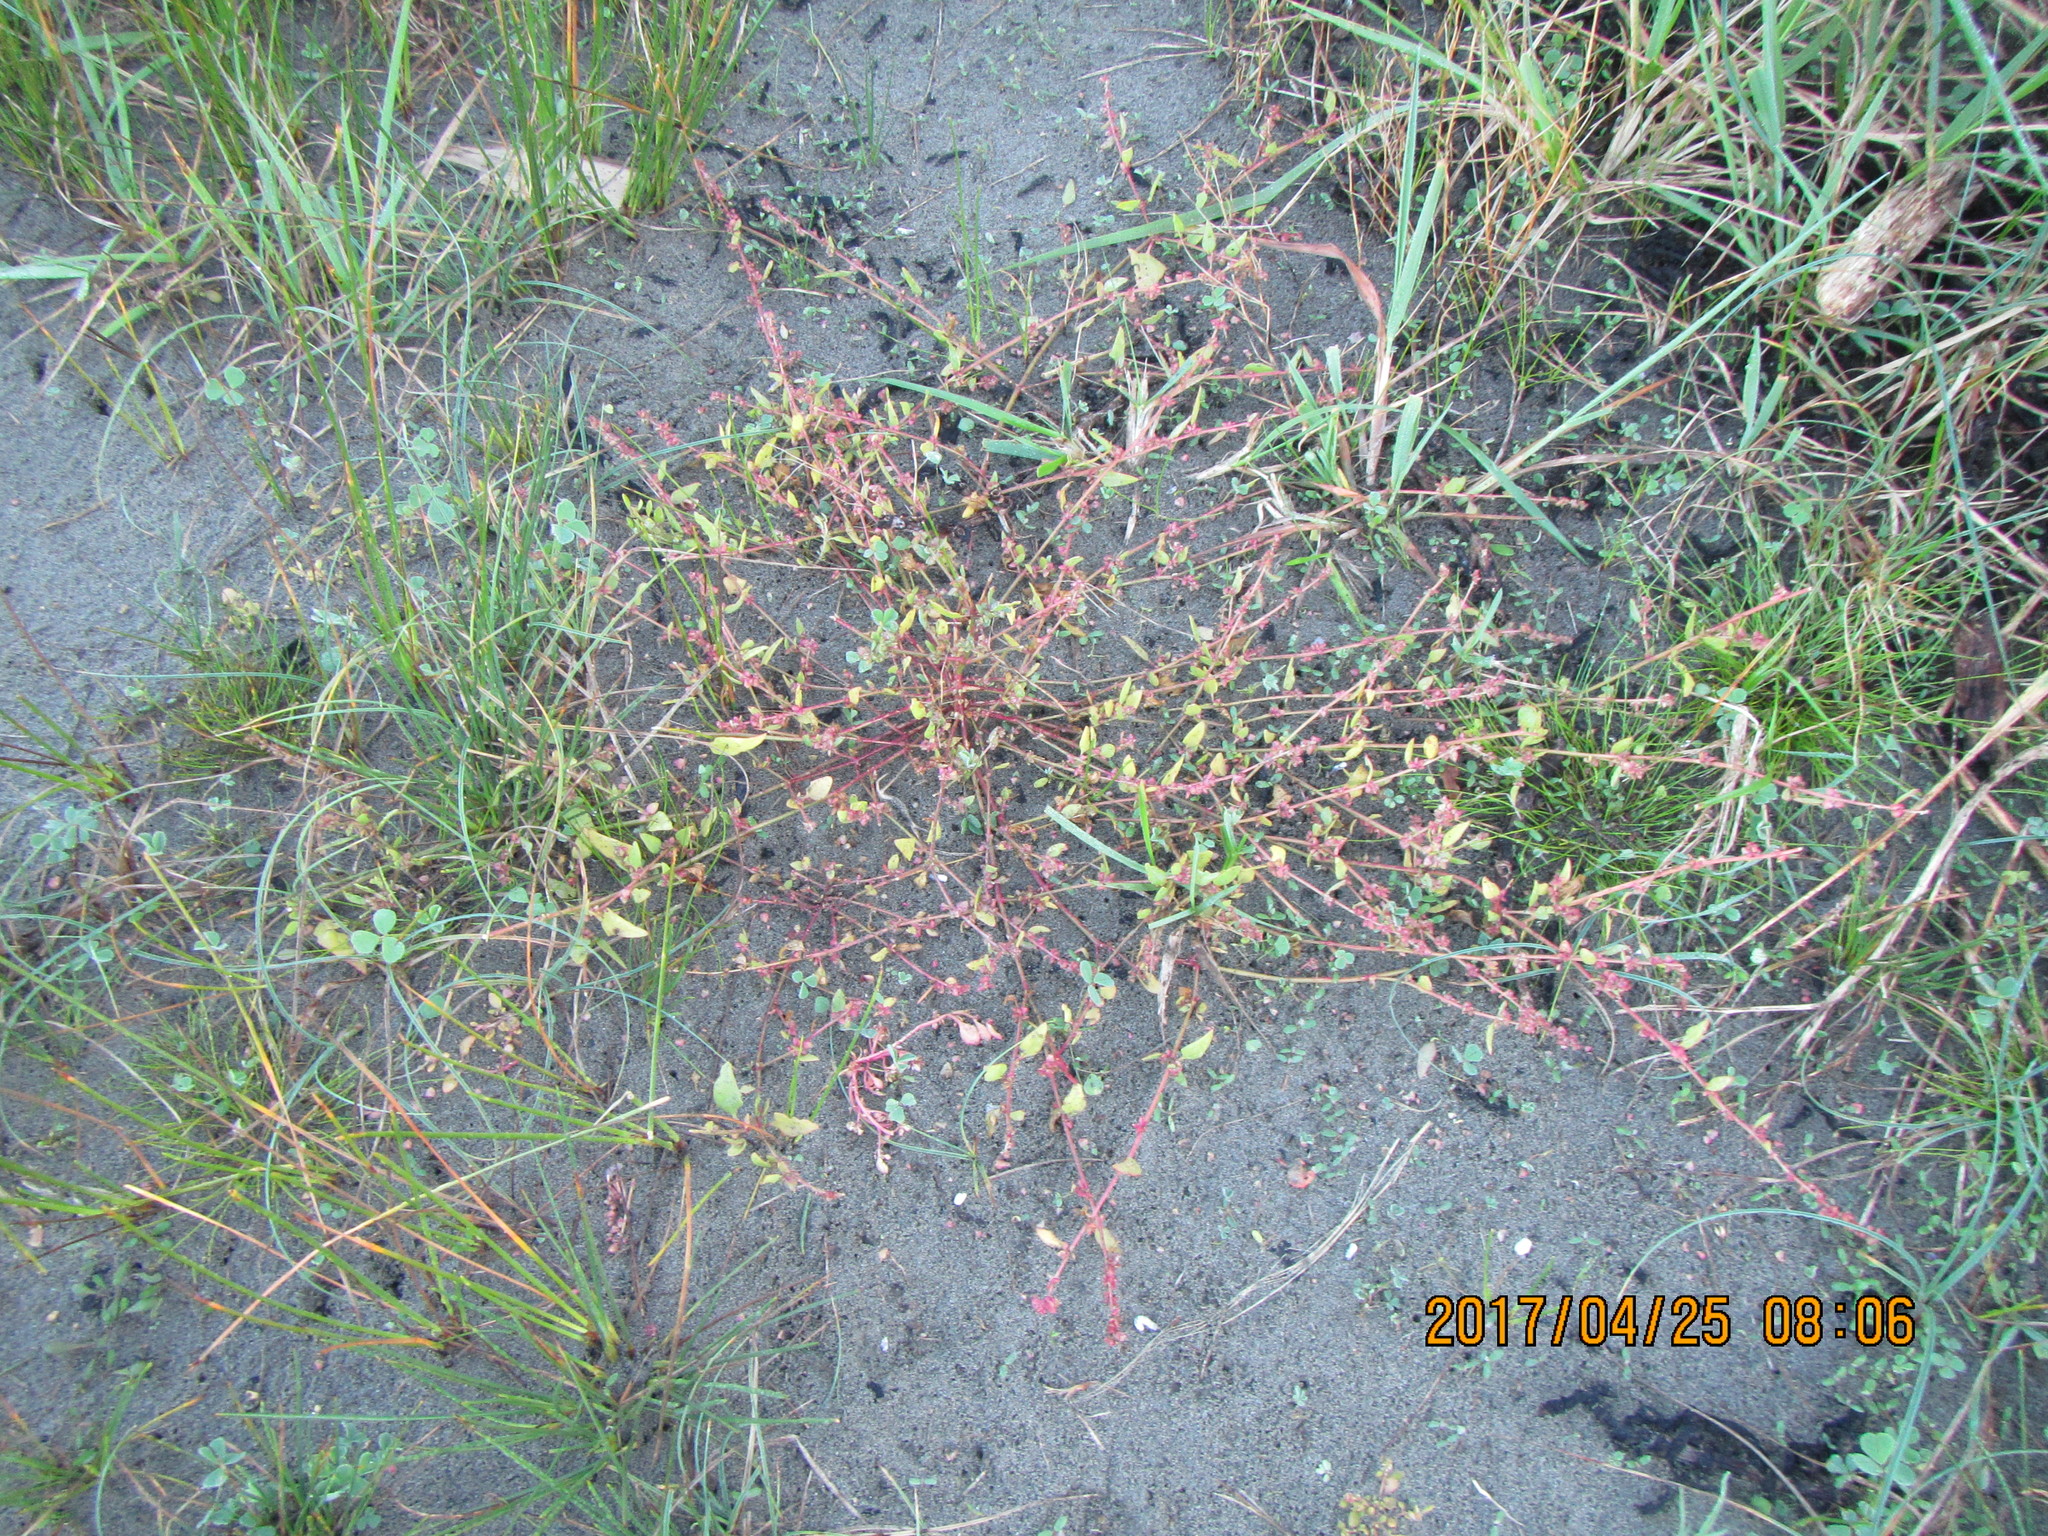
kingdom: Plantae
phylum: Tracheophyta
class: Magnoliopsida
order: Caryophyllales
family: Amaranthaceae
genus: Atriplex
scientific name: Atriplex prostrata
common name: Spear-leaved orache
